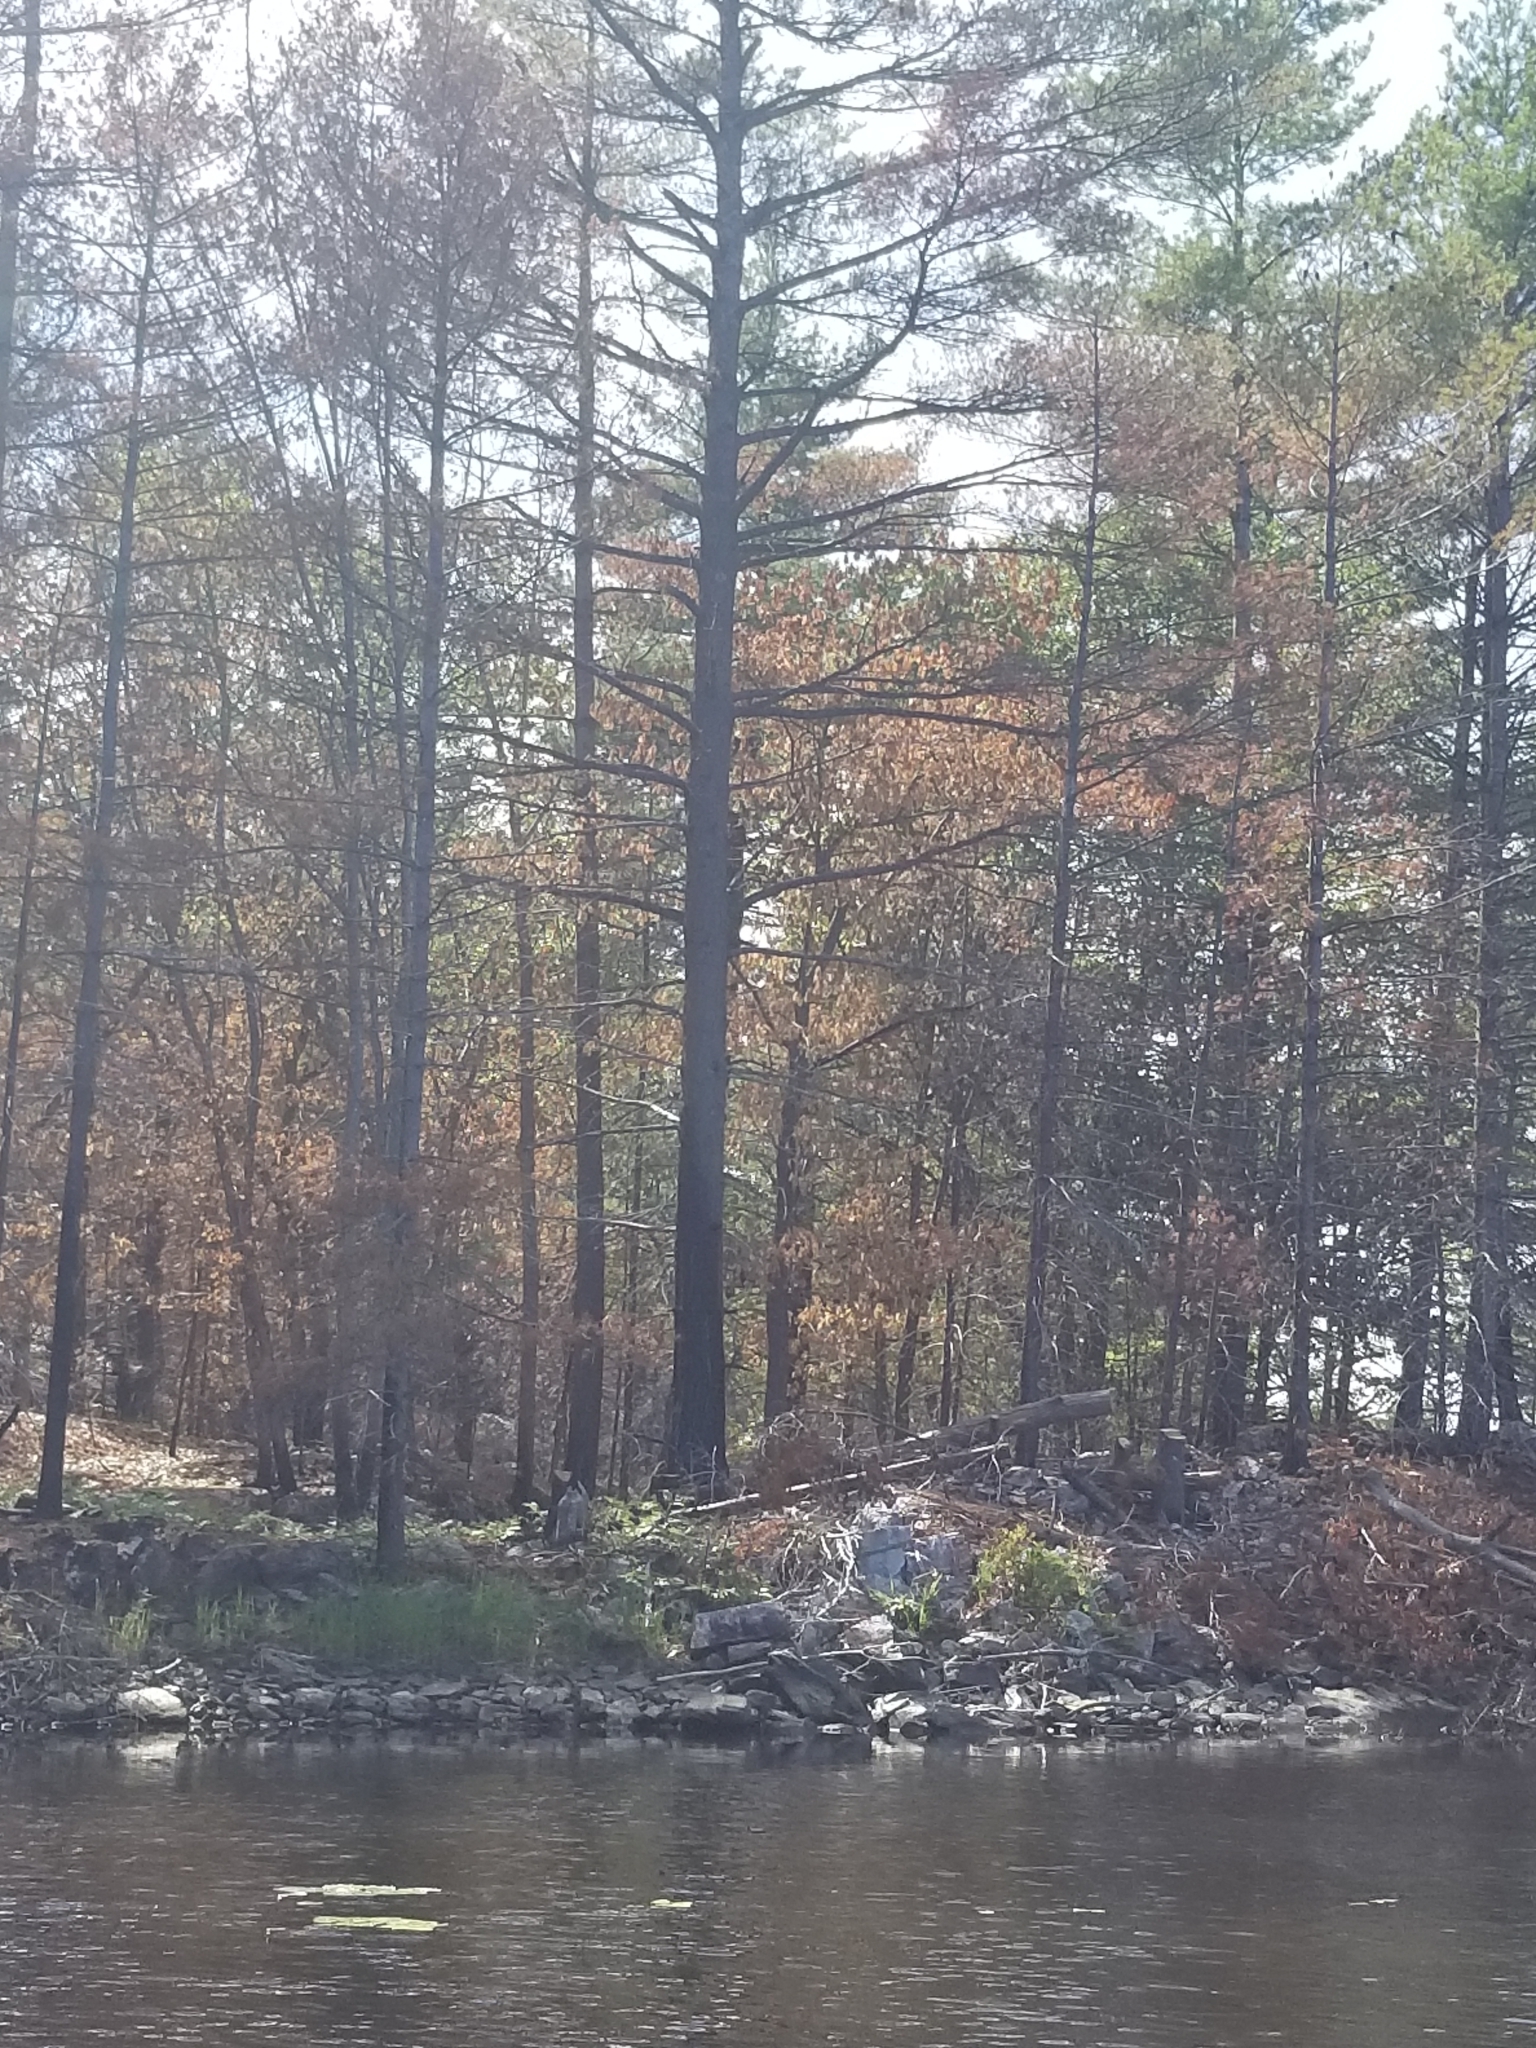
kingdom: Plantae
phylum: Tracheophyta
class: Pinopsida
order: Pinales
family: Pinaceae
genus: Pinus
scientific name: Pinus strobus
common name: Weymouth pine
